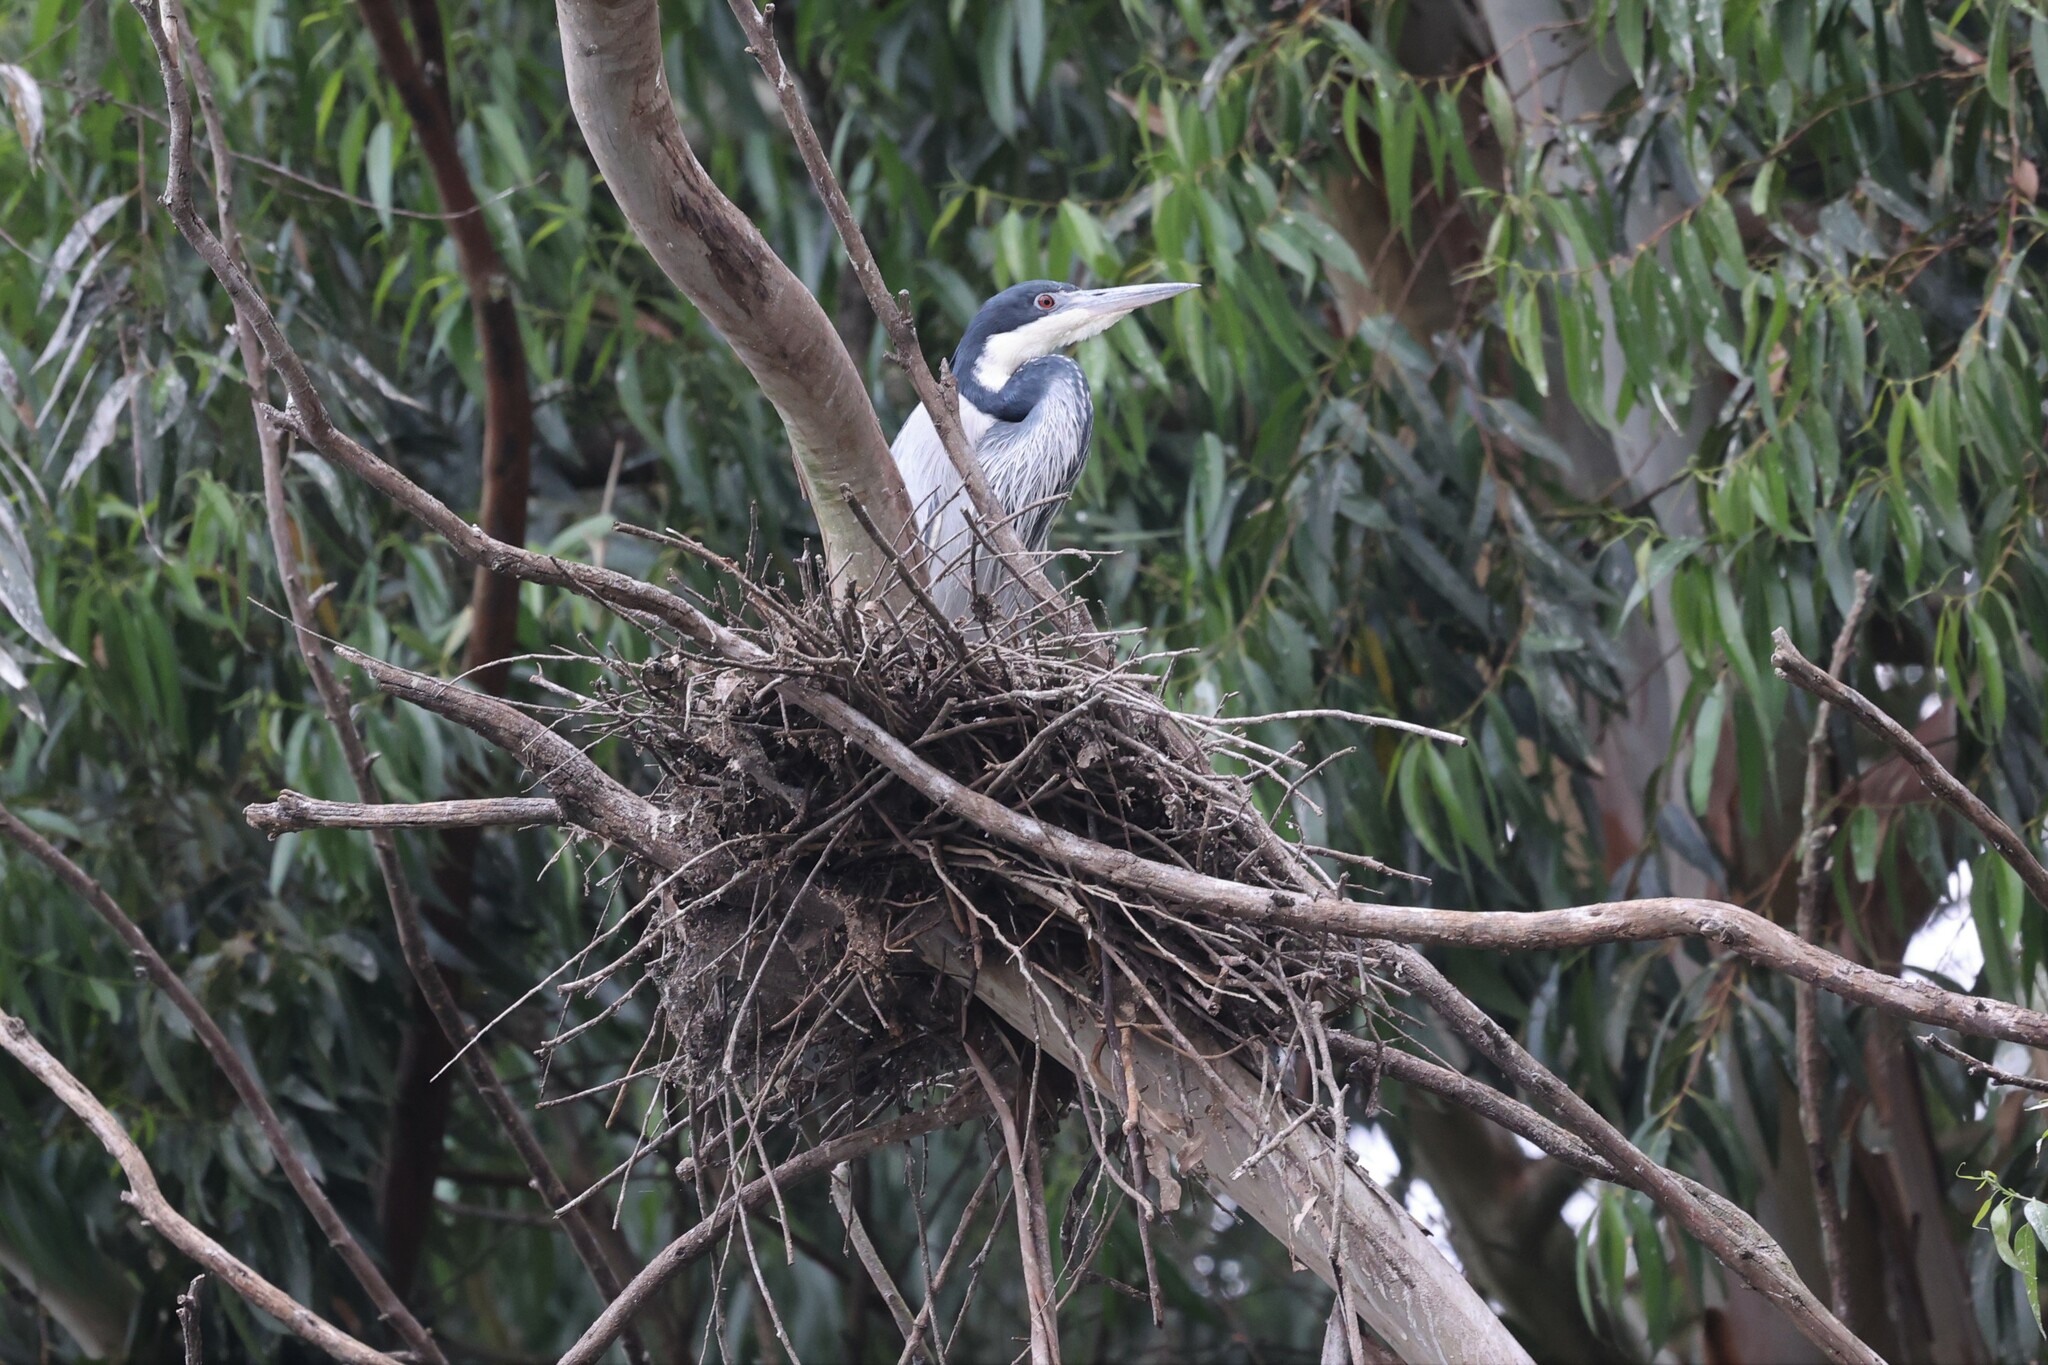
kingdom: Animalia
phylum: Chordata
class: Aves
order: Pelecaniformes
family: Ardeidae
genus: Ardea
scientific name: Ardea melanocephala
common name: Black-headed heron
